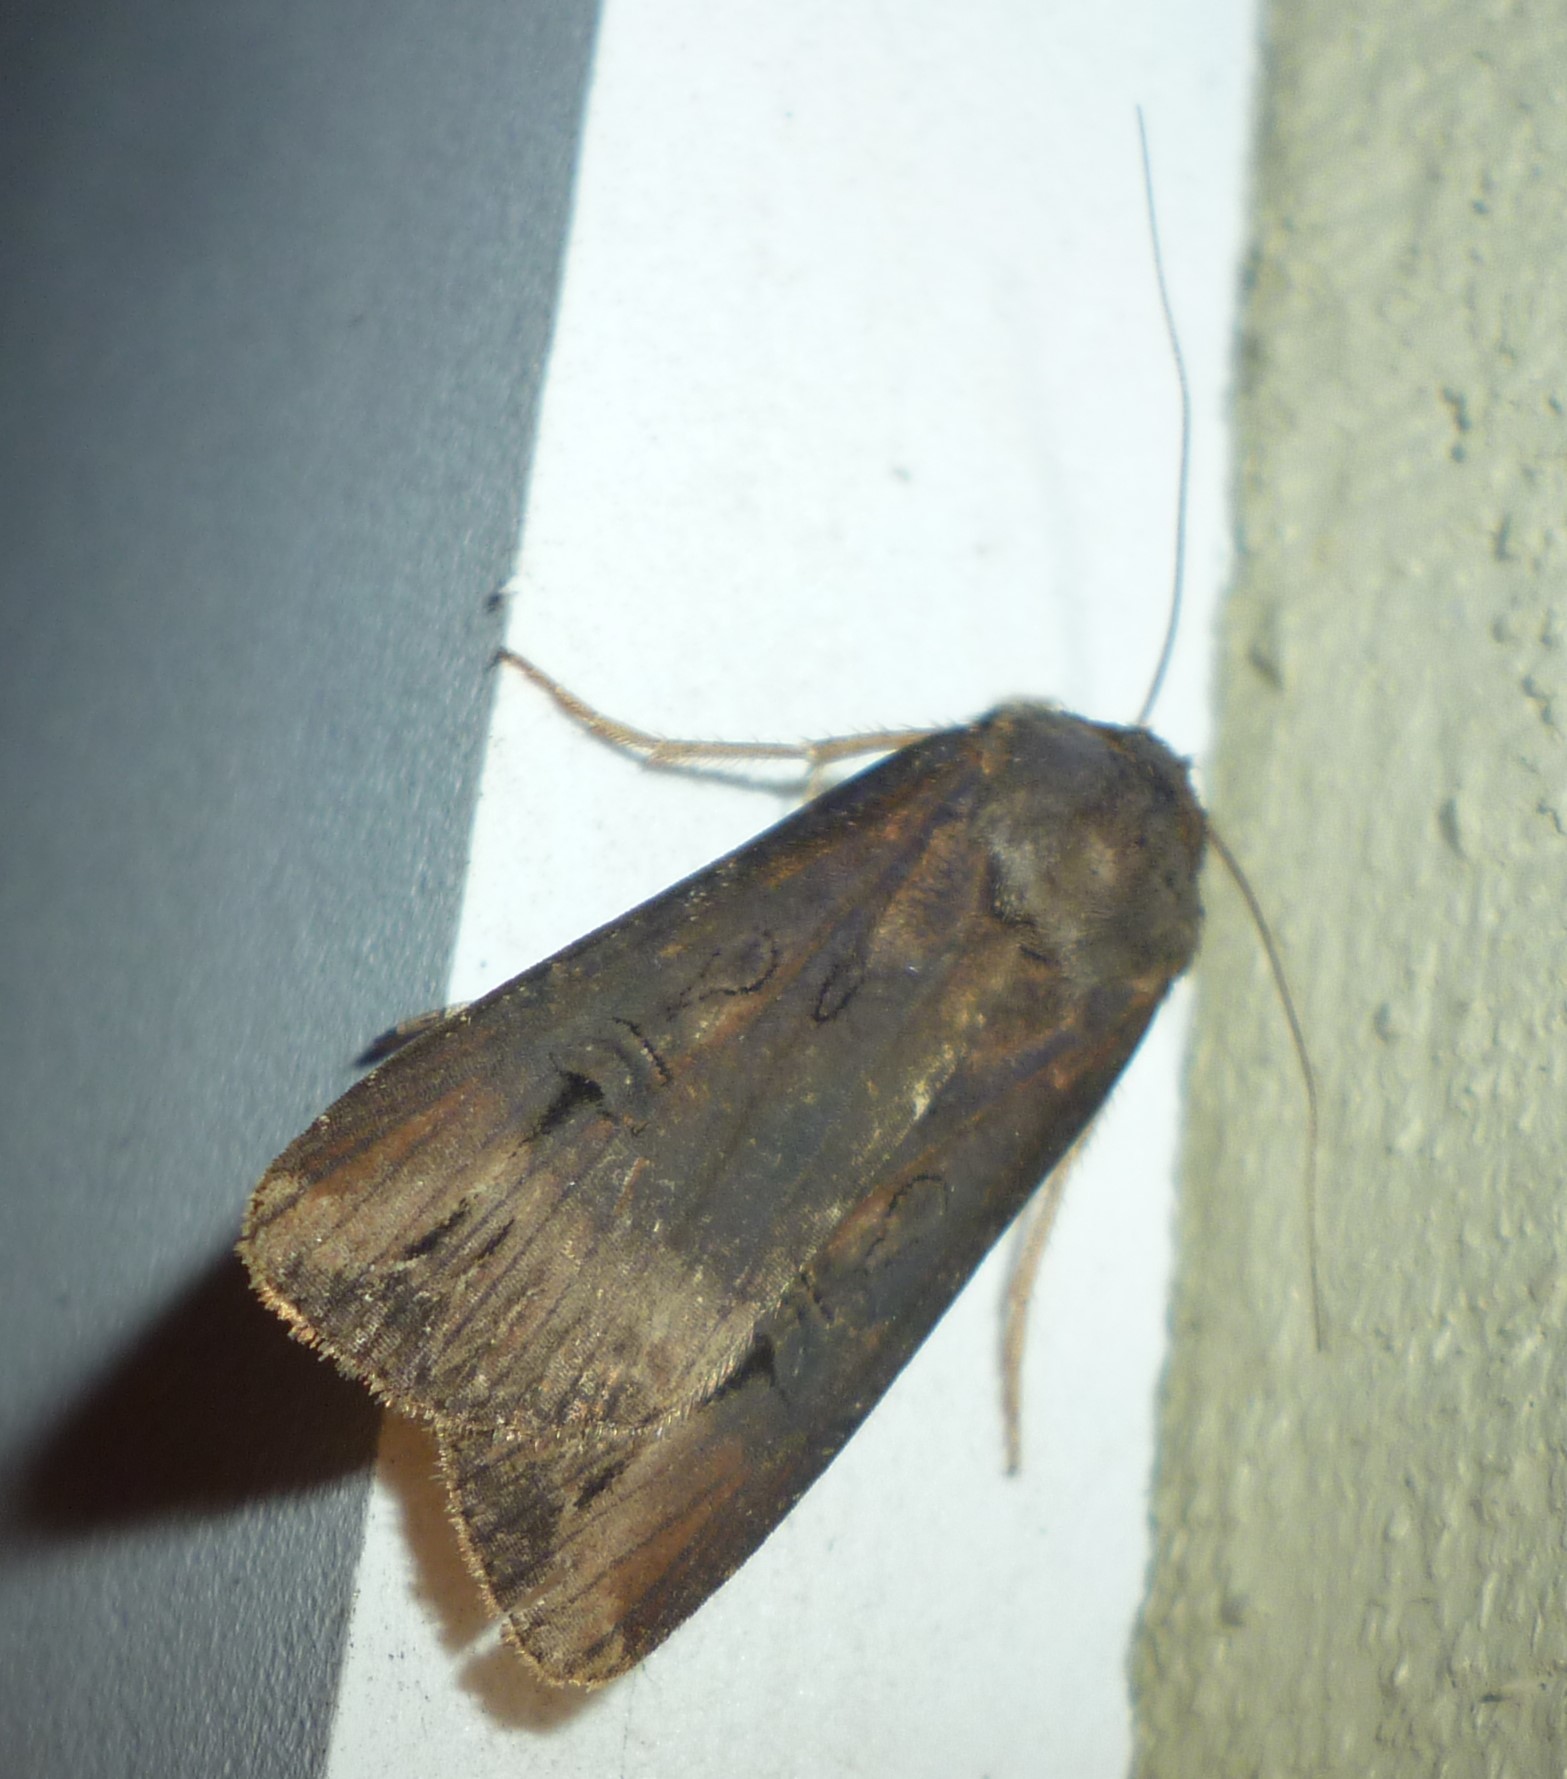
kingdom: Animalia
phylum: Arthropoda
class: Insecta
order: Lepidoptera
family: Noctuidae
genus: Agrotis
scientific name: Agrotis ipsilon
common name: Dark sword-grass
